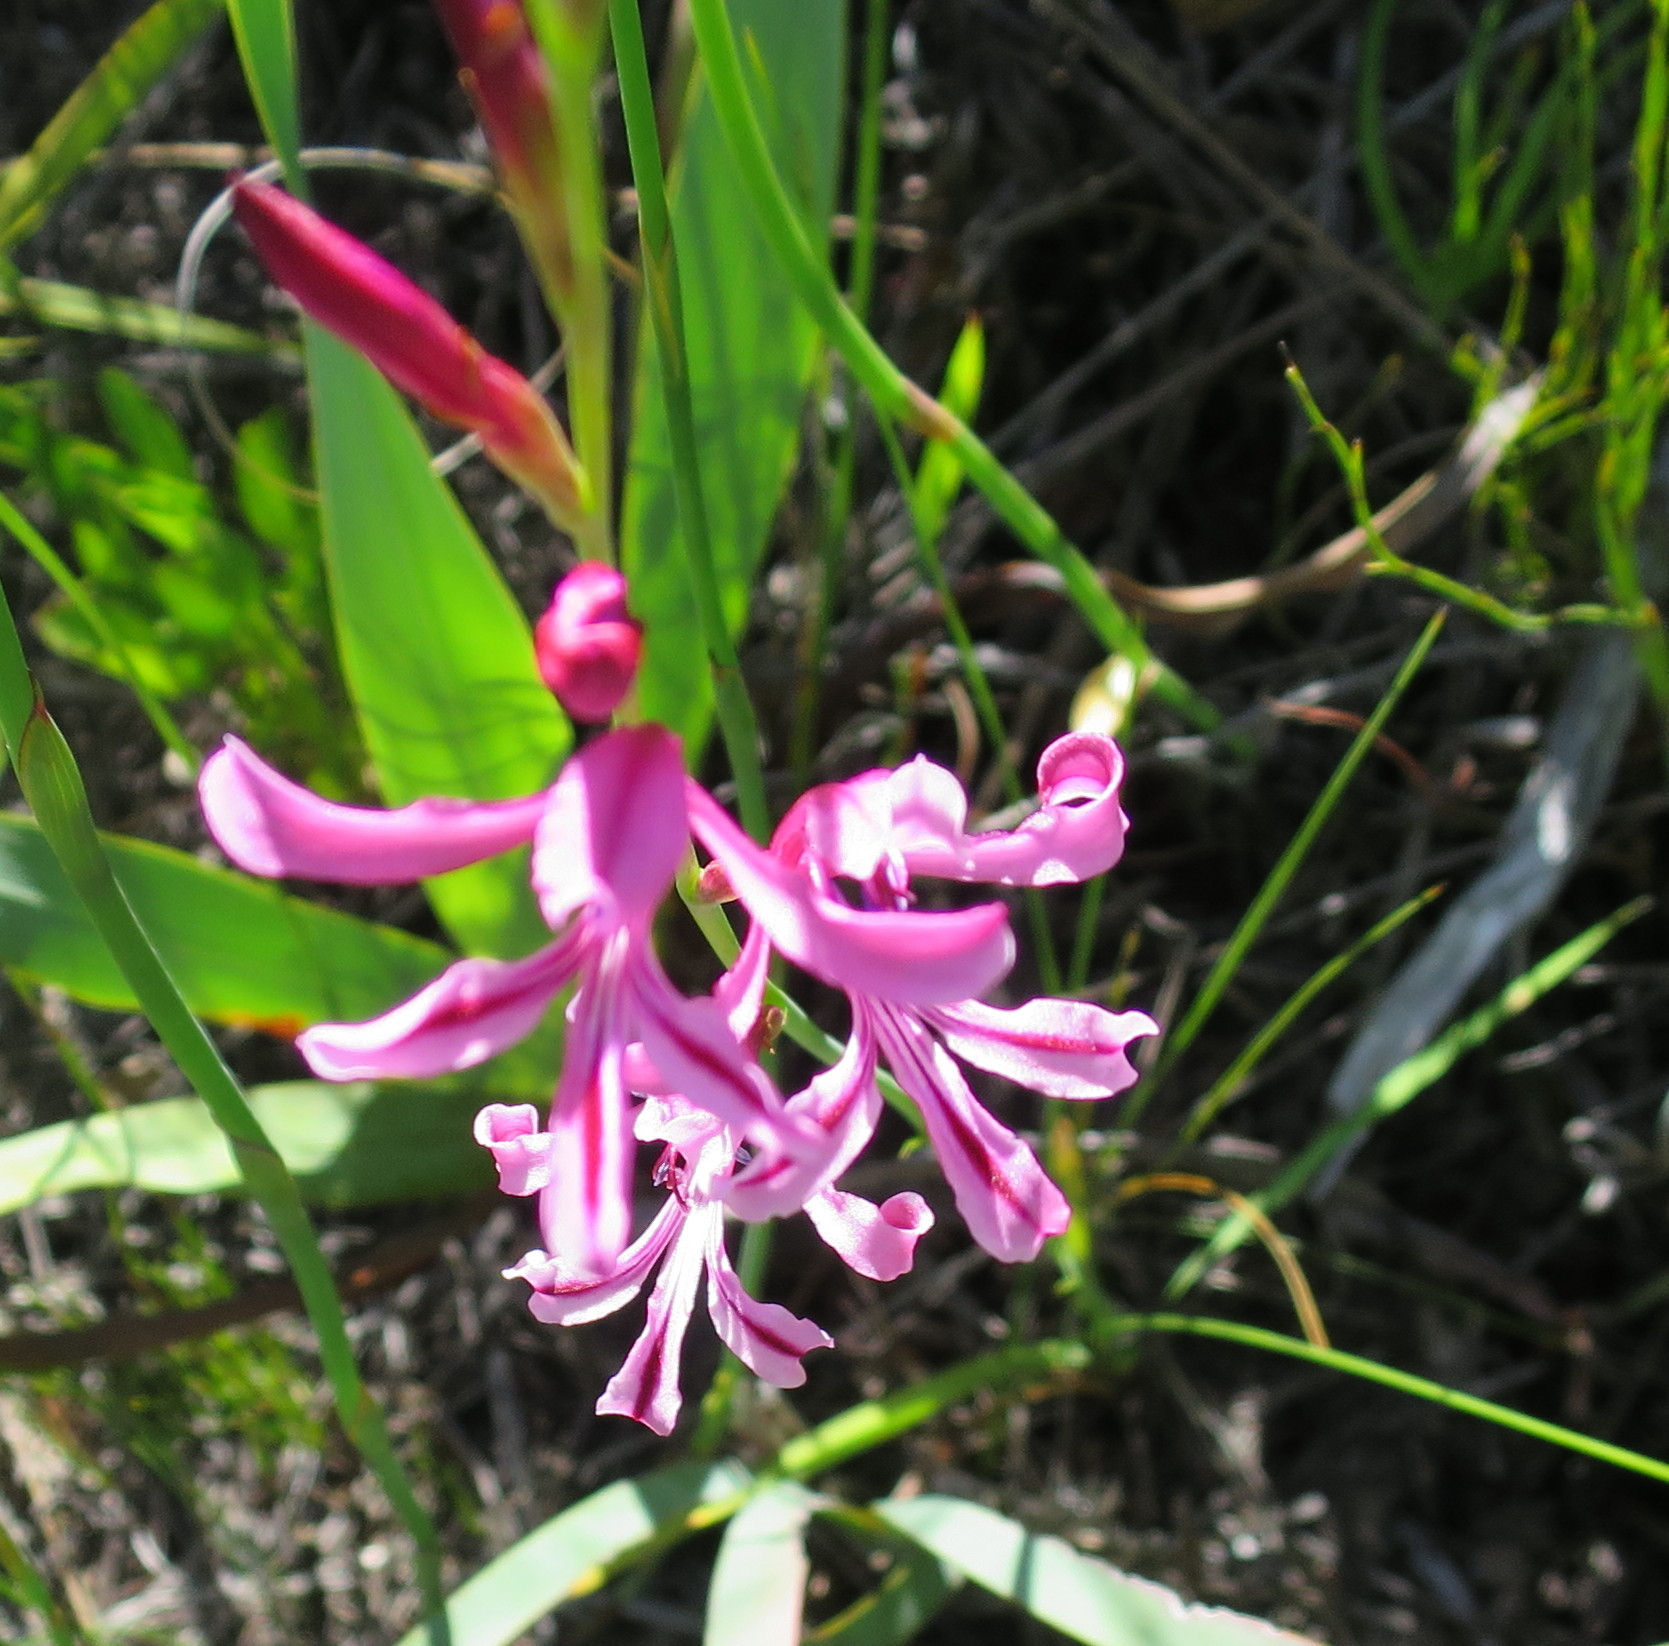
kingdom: Plantae
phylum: Tracheophyta
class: Liliopsida
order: Asparagales
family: Iridaceae
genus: Tritoniopsis
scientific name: Tritoniopsis ramosa
